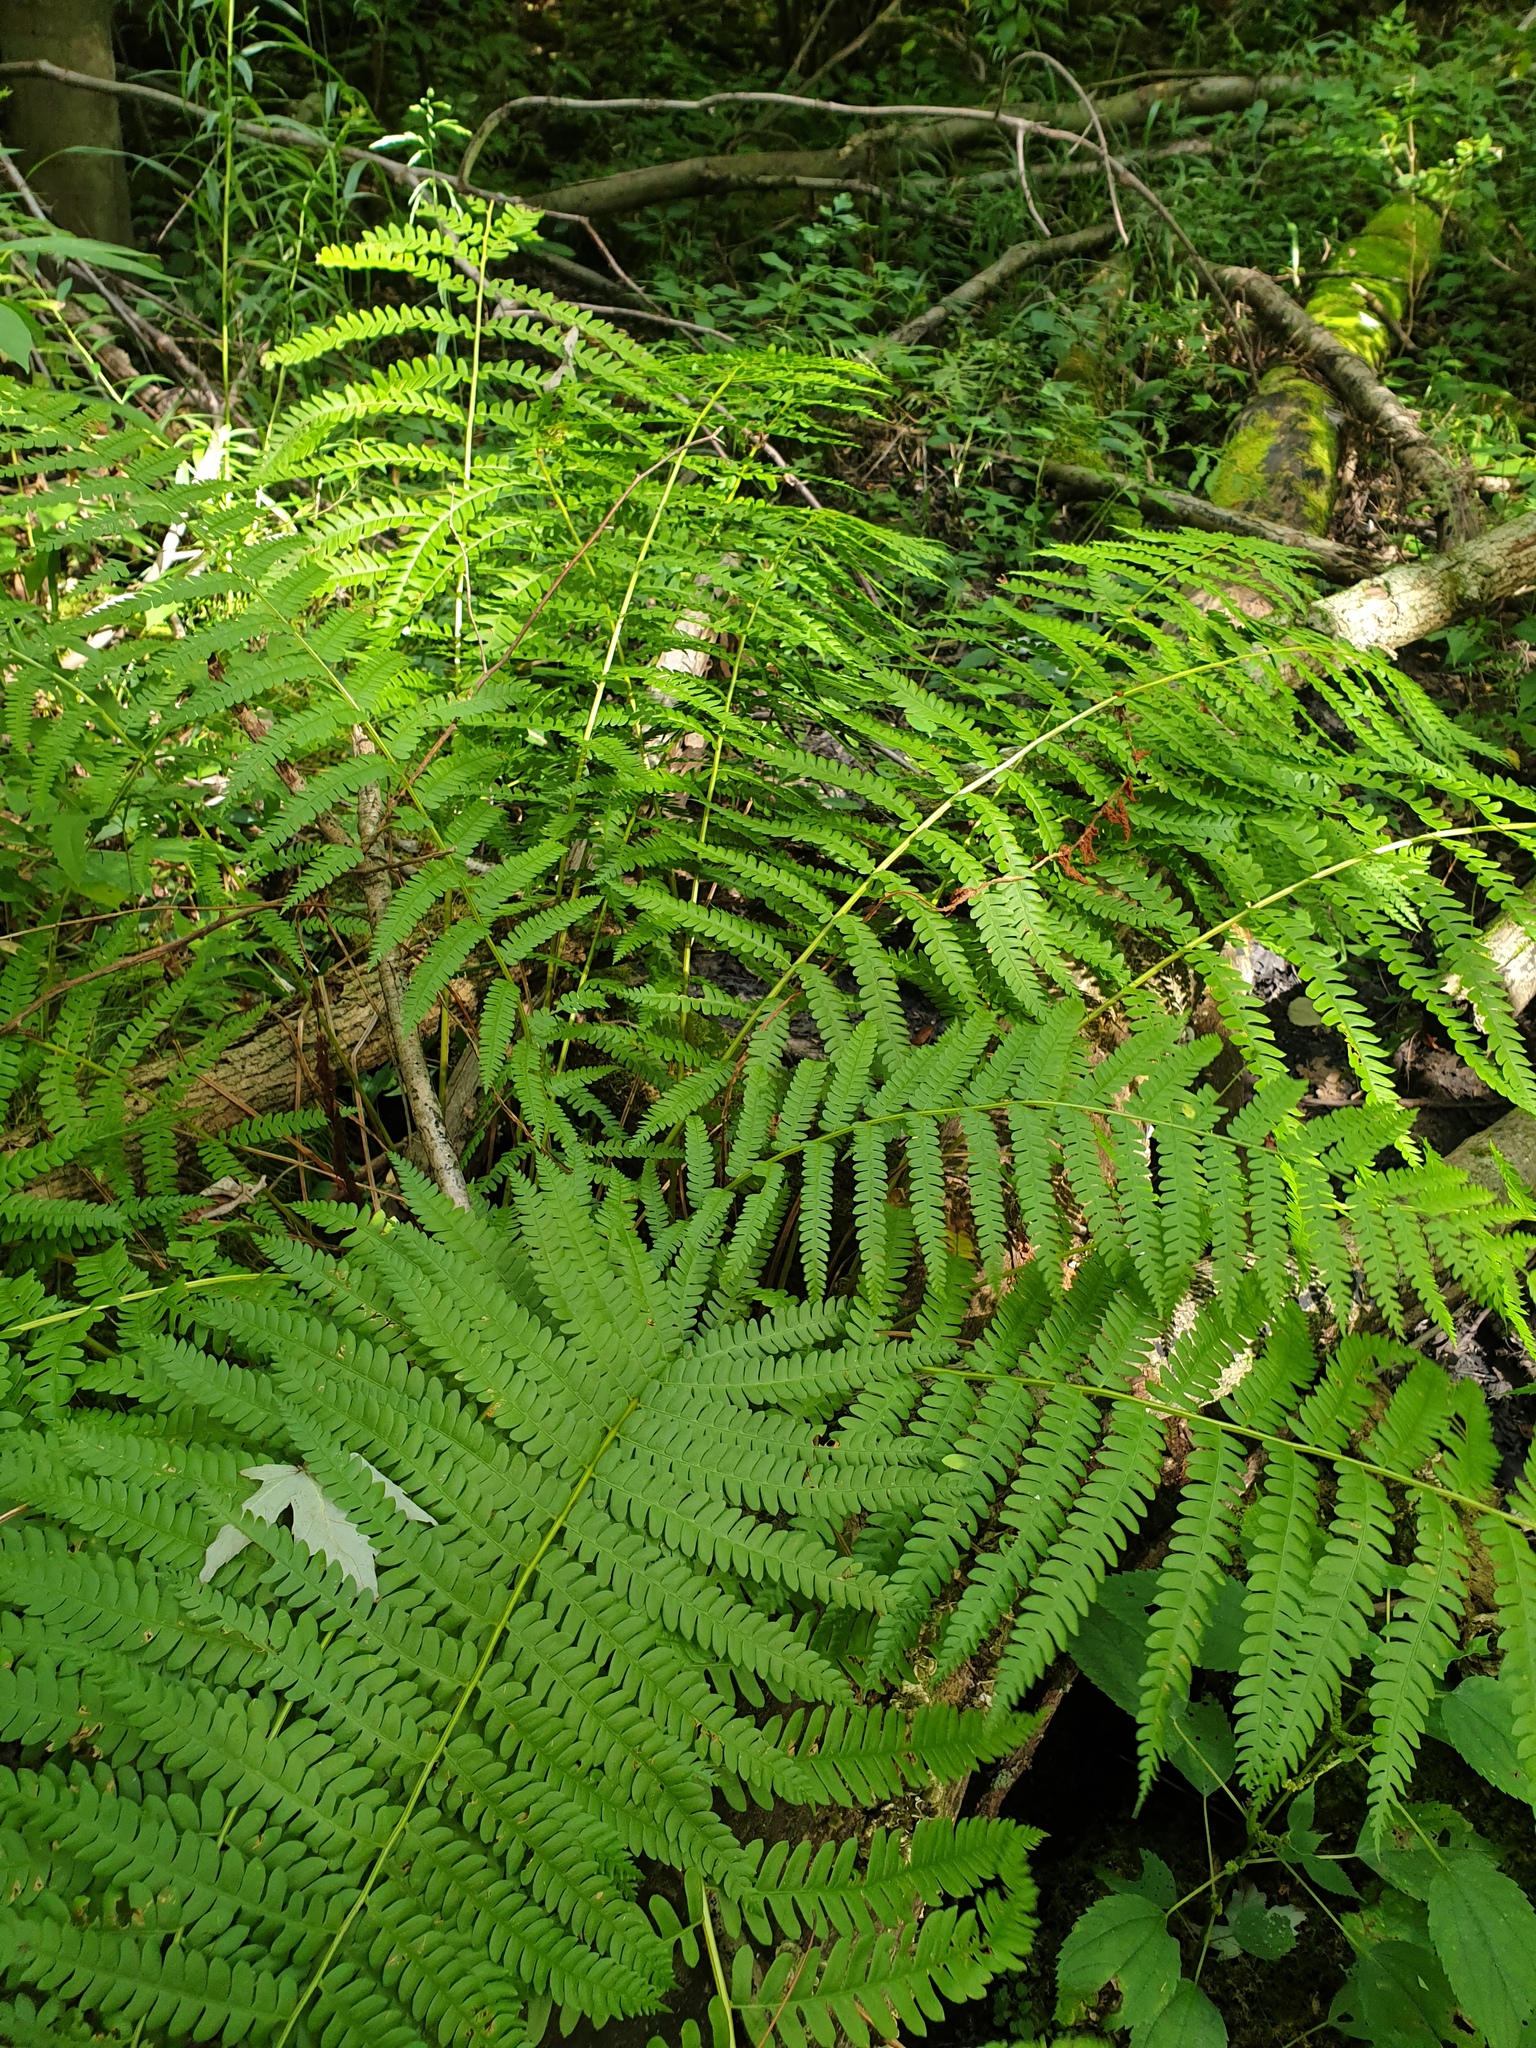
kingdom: Plantae
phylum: Tracheophyta
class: Polypodiopsida
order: Osmundales
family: Osmundaceae
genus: Osmundastrum
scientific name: Osmundastrum cinnamomeum
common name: Cinnamon fern
